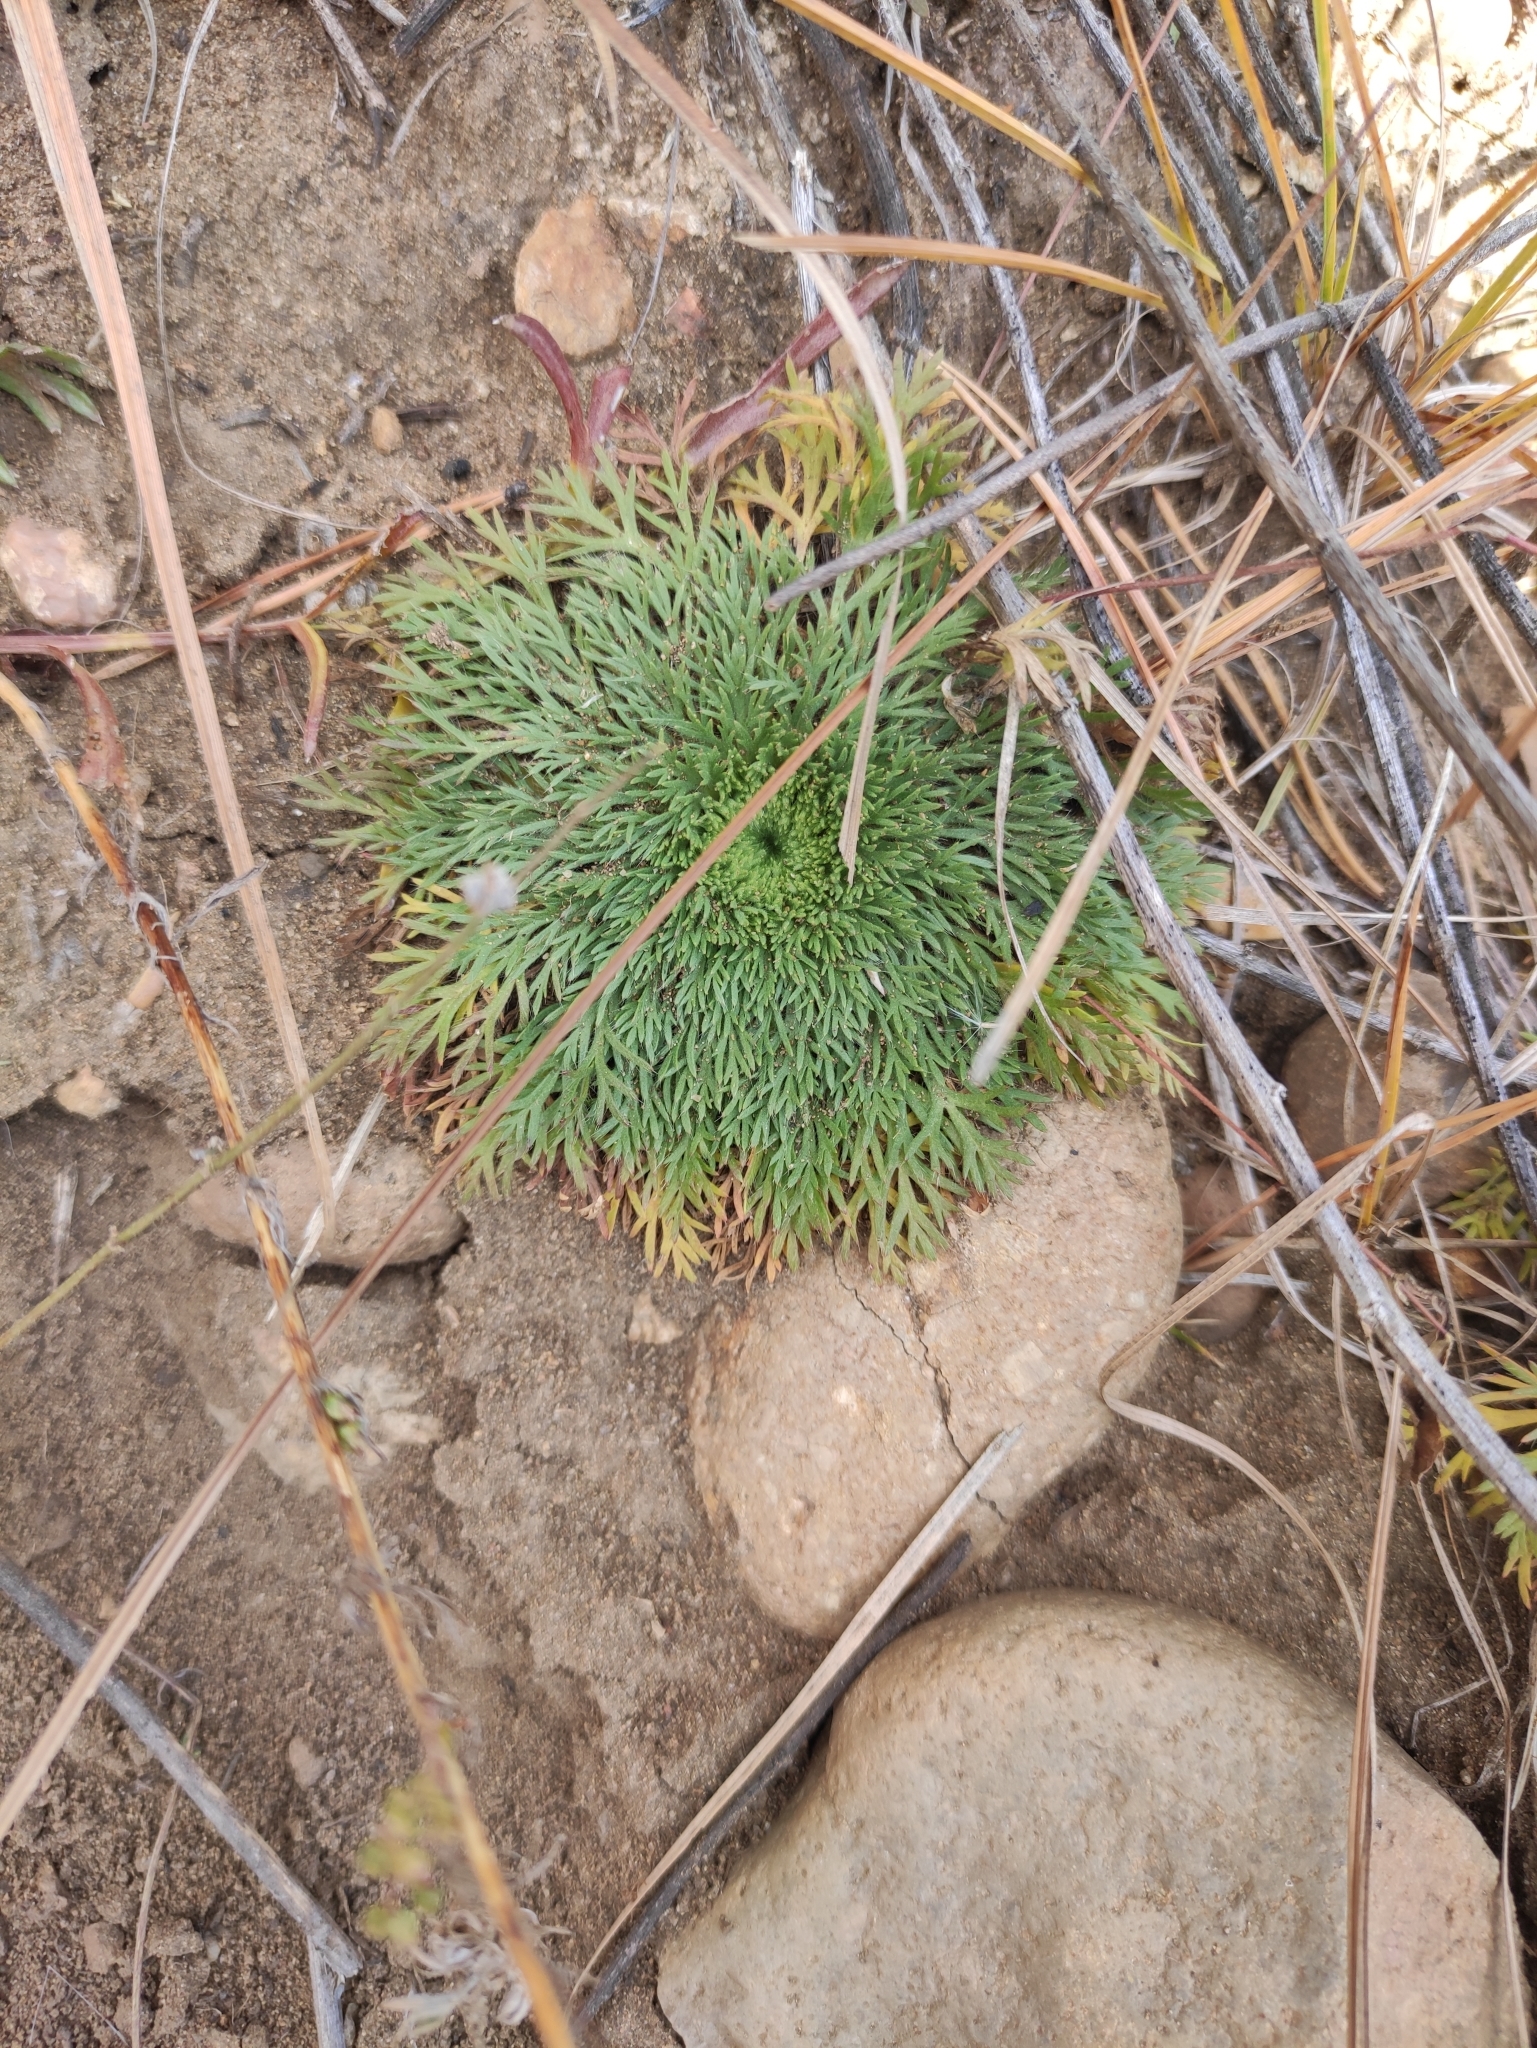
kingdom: Plantae
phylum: Tracheophyta
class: Magnoliopsida
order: Rosales
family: Rosaceae
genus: Chamaerhodos
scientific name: Chamaerhodos erecta
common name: American chamaerhodos
